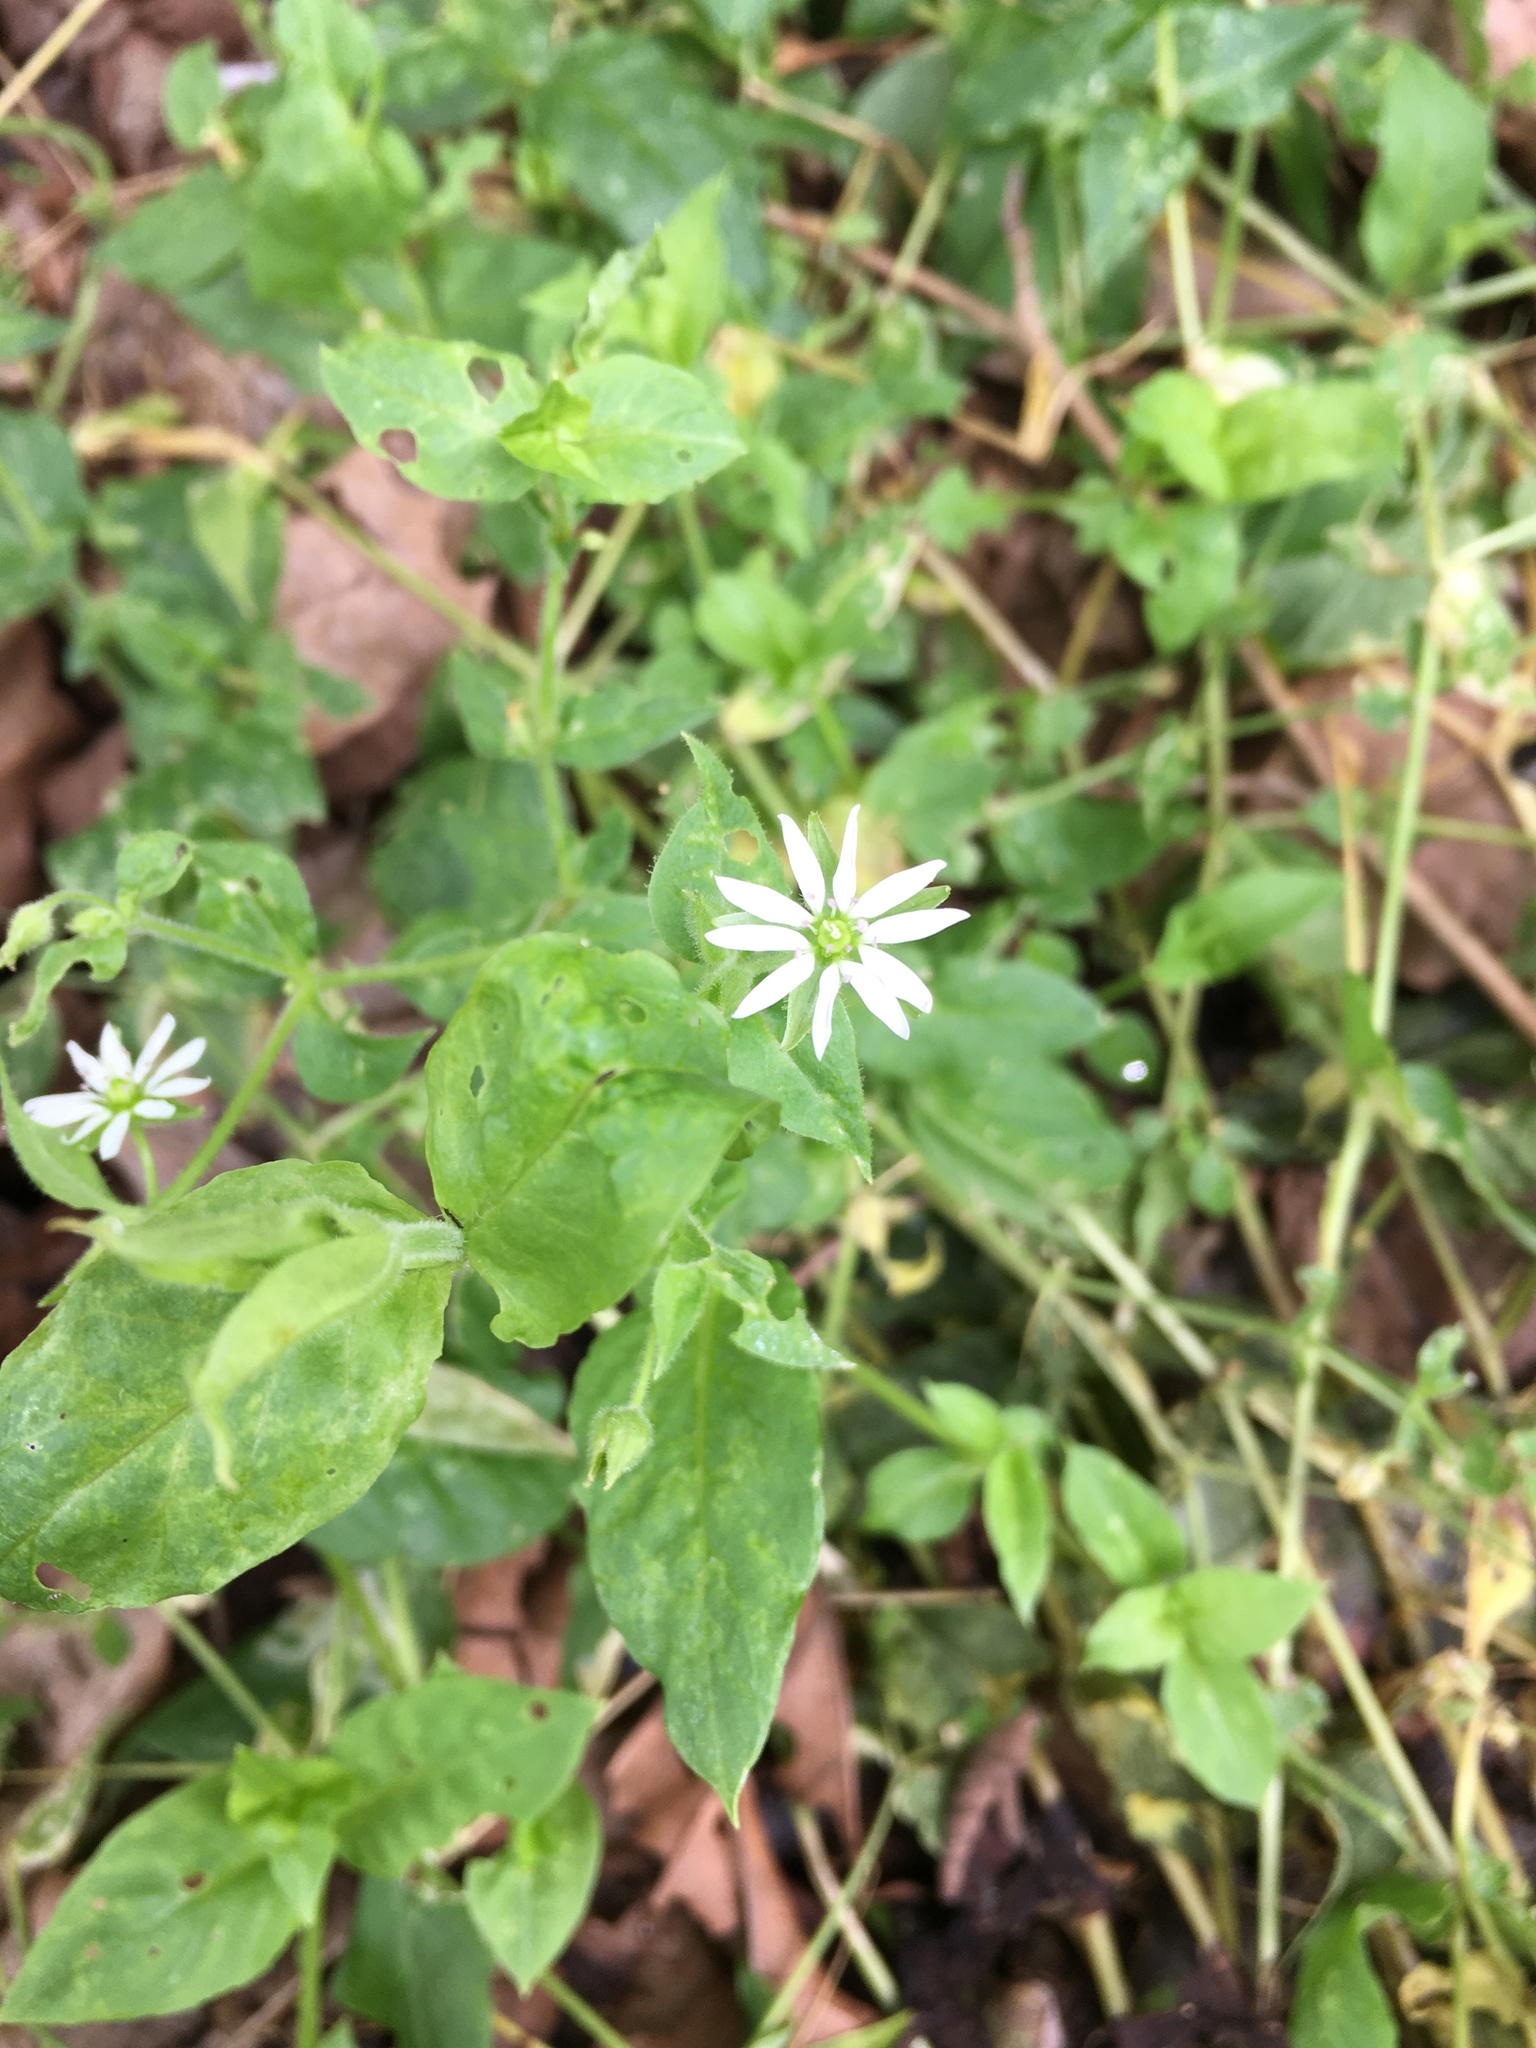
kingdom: Plantae
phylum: Tracheophyta
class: Magnoliopsida
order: Caryophyllales
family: Caryophyllaceae
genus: Stellaria
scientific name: Stellaria aquatica
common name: Water chickweed
